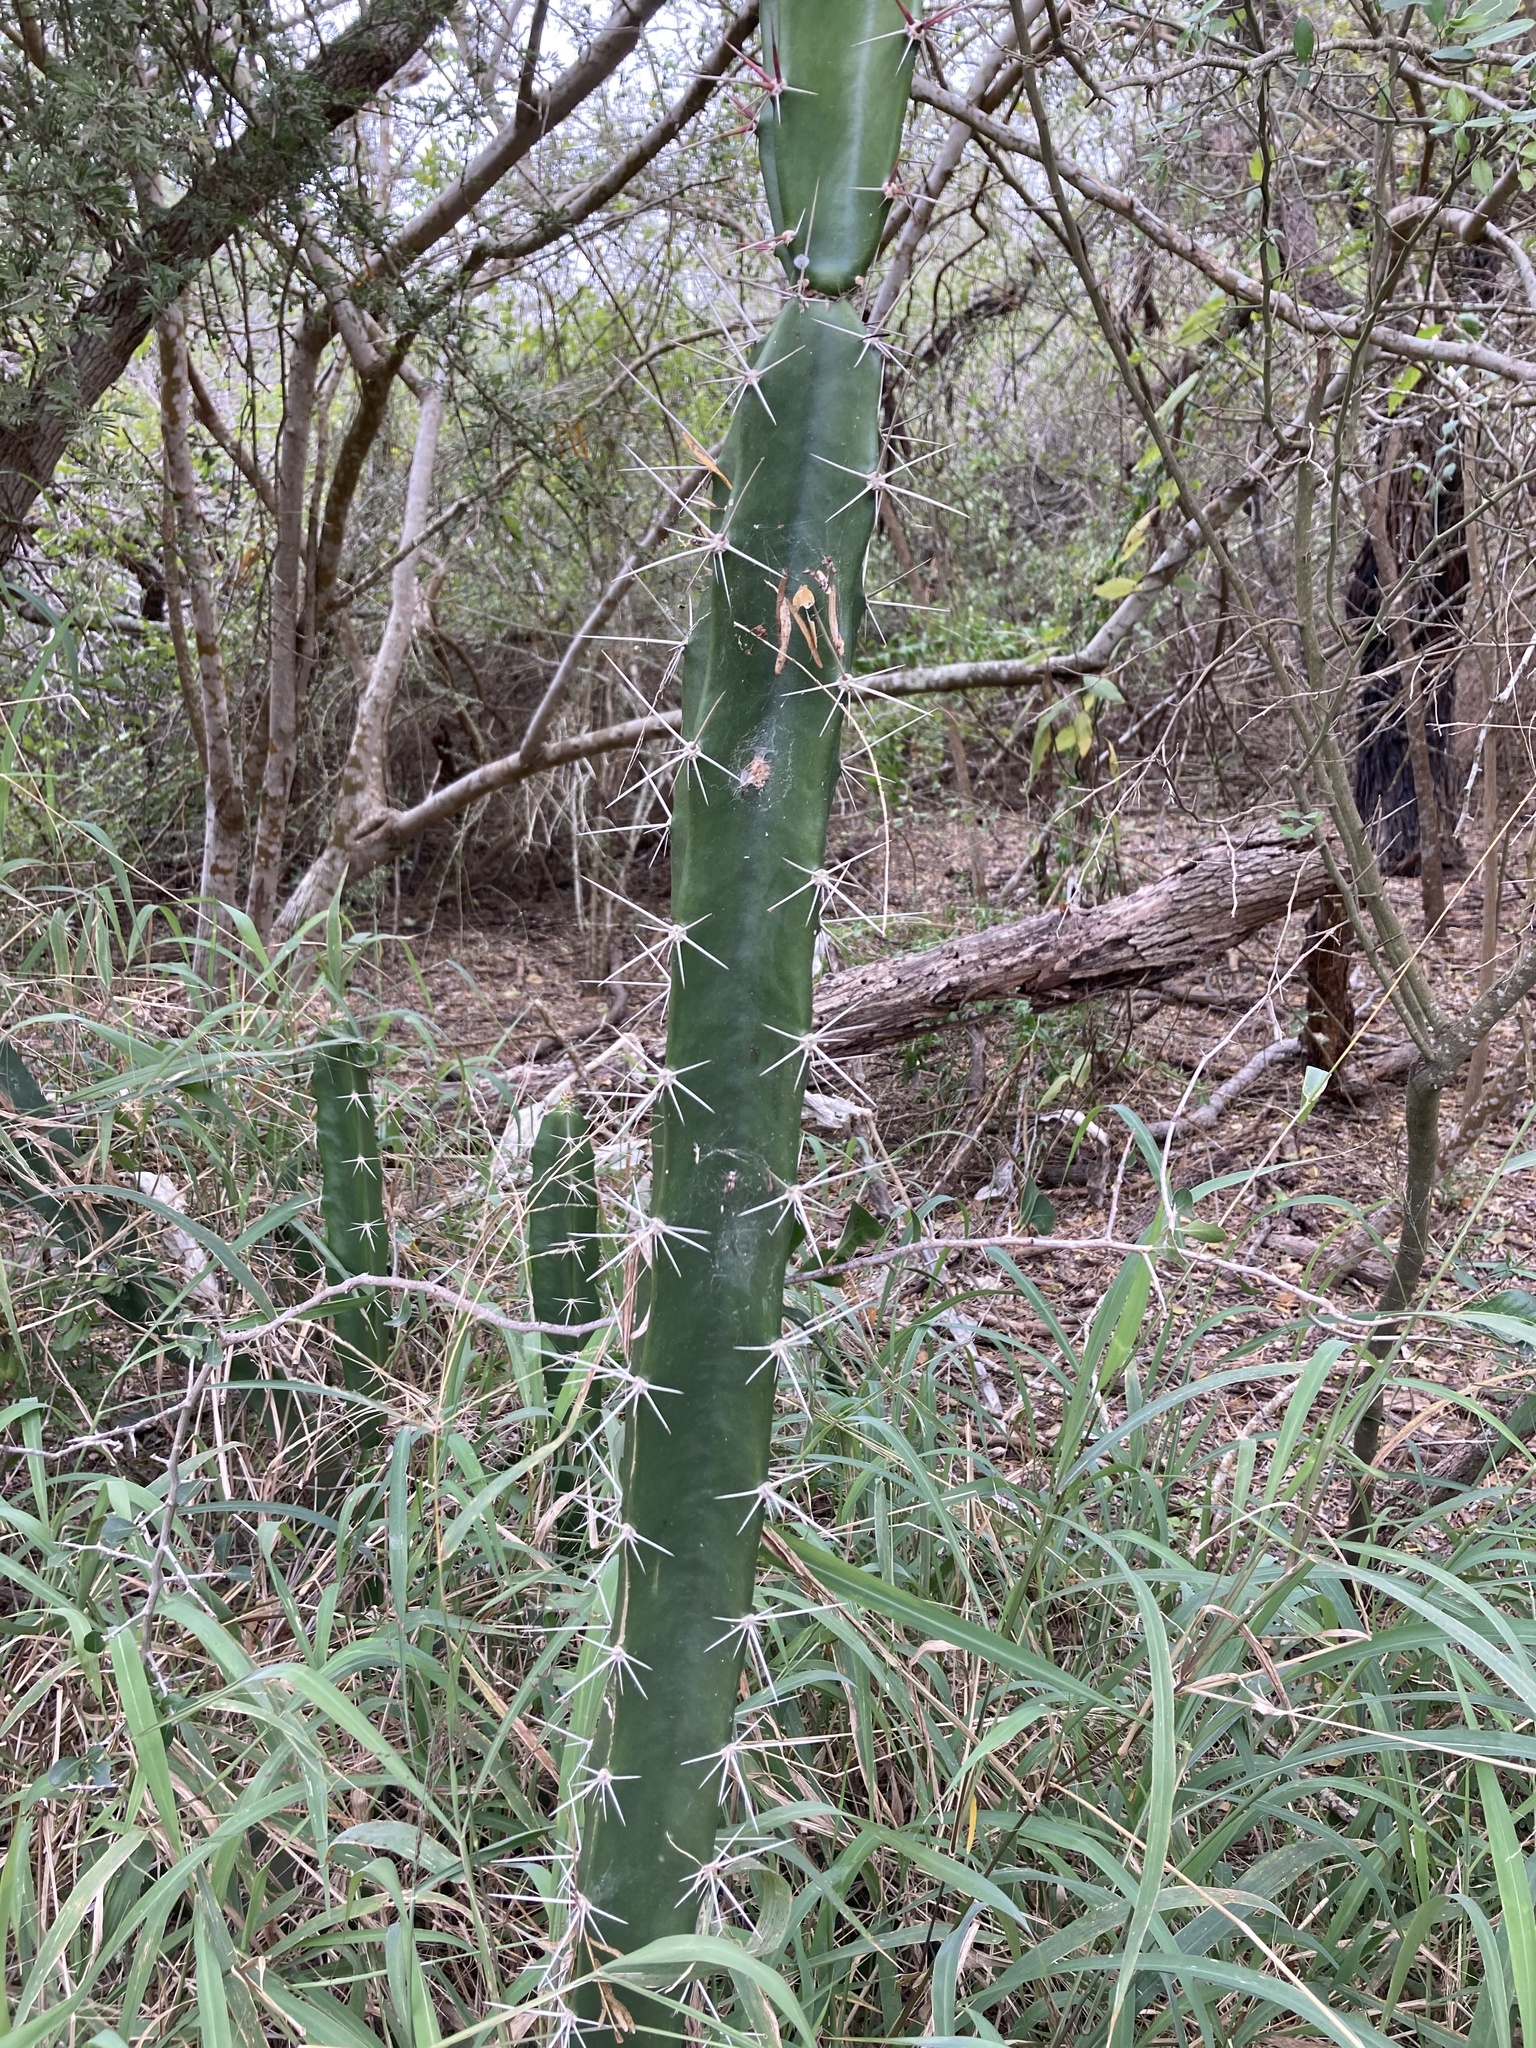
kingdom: Plantae
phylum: Tracheophyta
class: Magnoliopsida
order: Caryophyllales
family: Cactaceae
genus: Acanthocereus
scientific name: Acanthocereus tetragonus
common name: Triangle cactus
